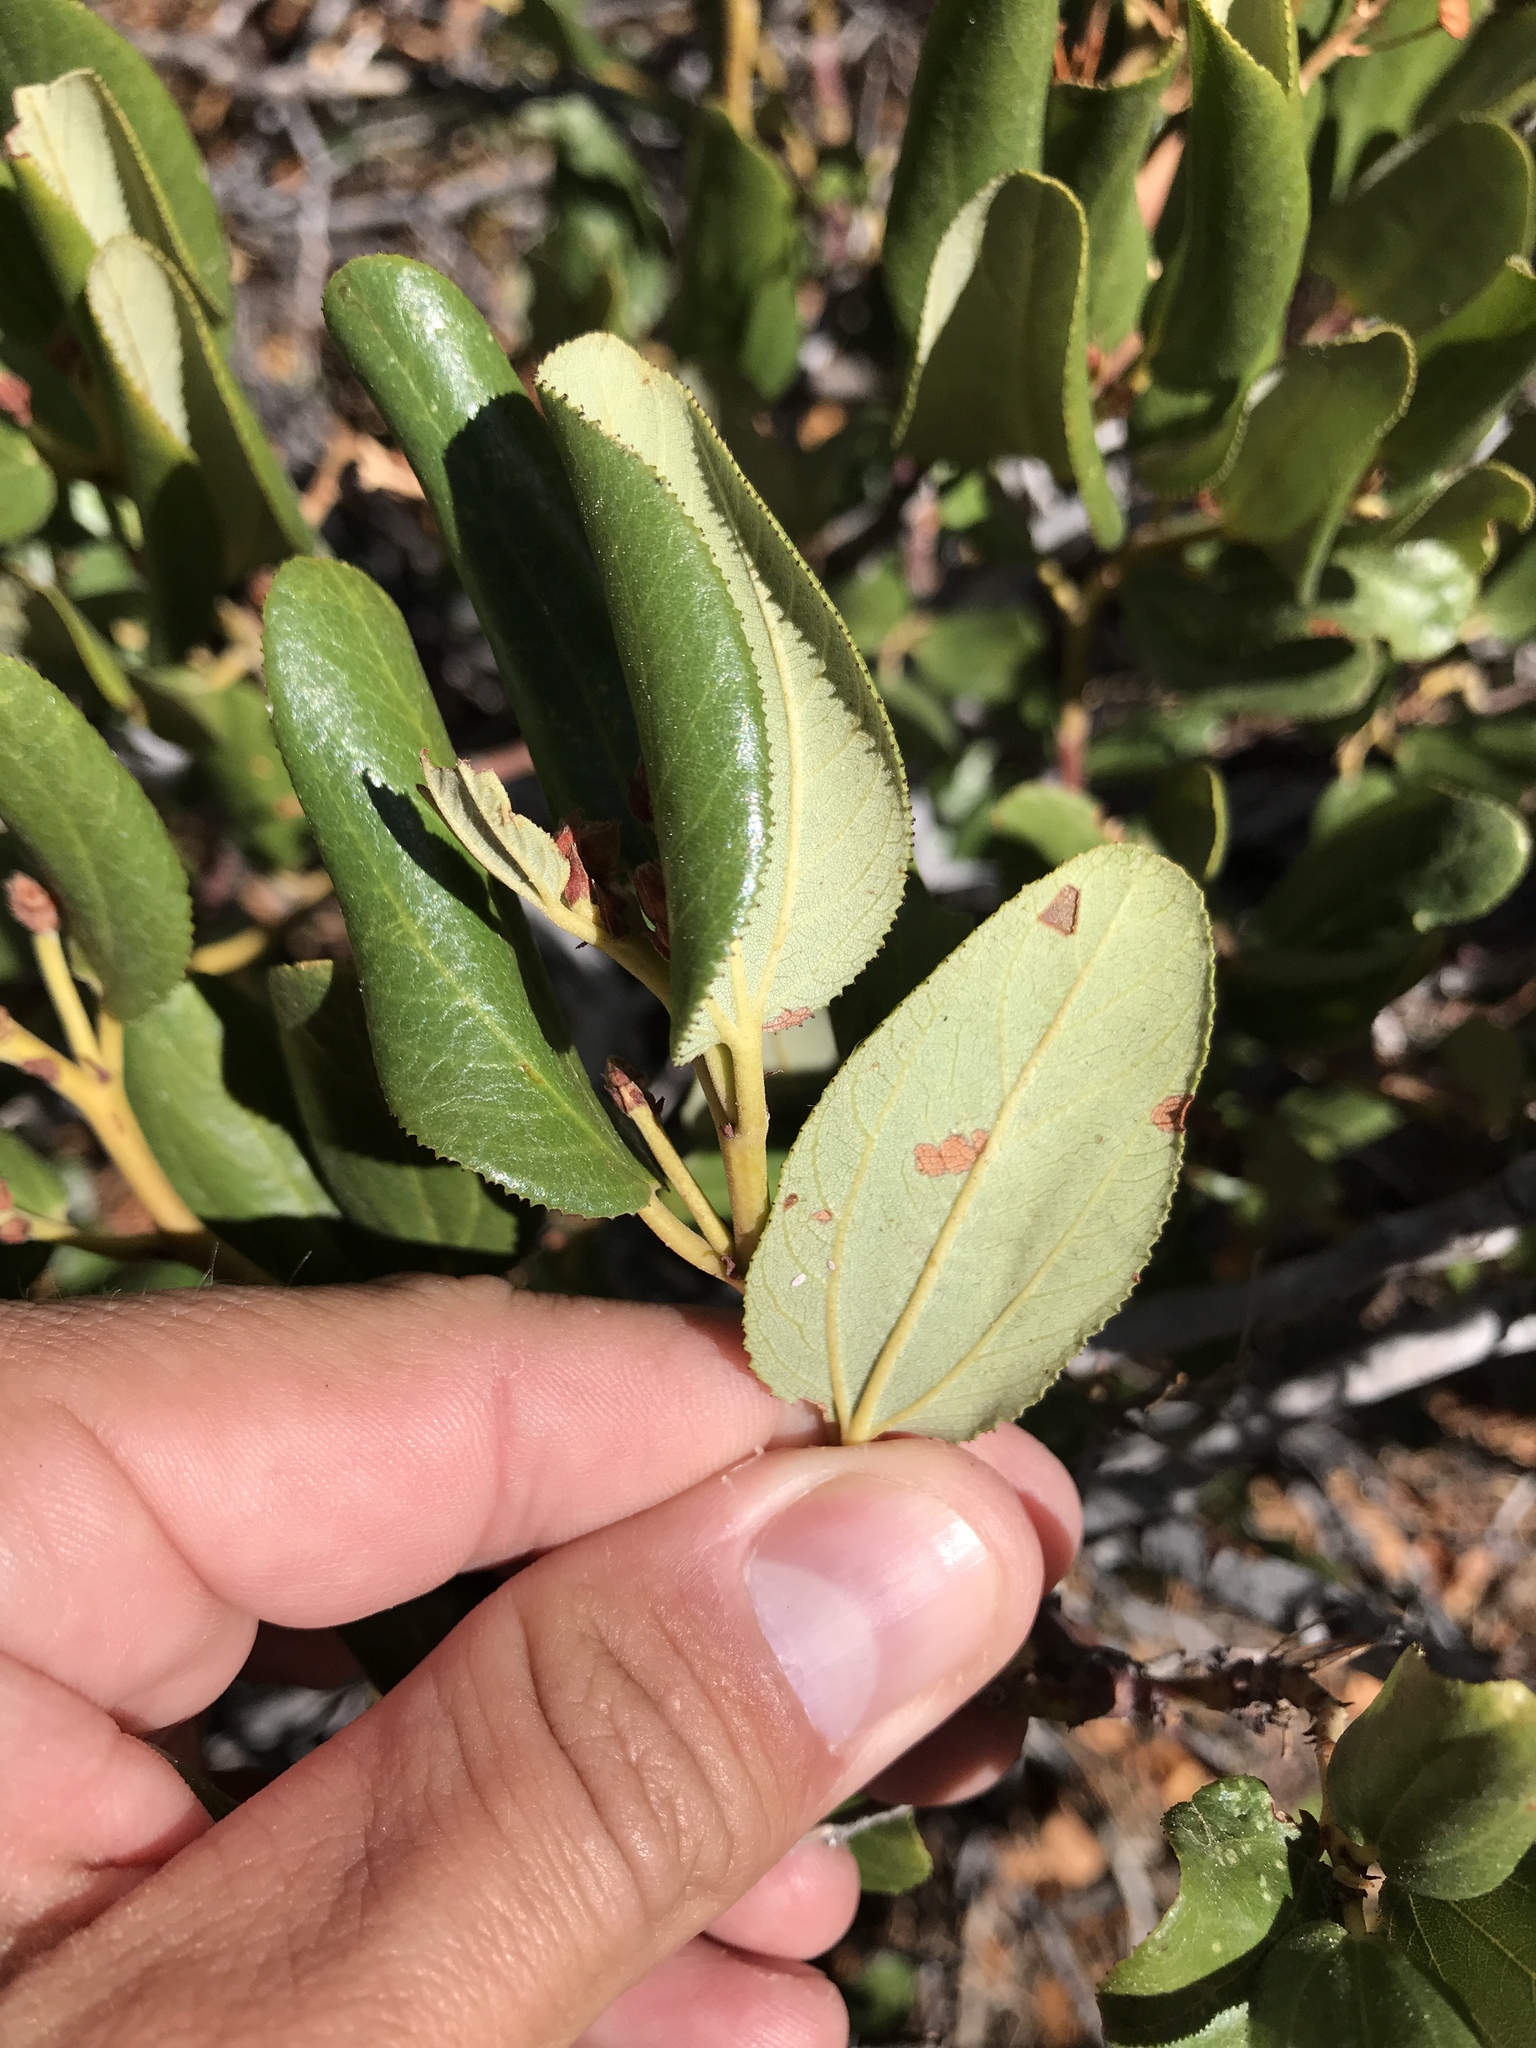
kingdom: Plantae
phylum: Tracheophyta
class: Magnoliopsida
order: Rosales
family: Rhamnaceae
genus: Ceanothus
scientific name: Ceanothus velutinus
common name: Snowbrush
